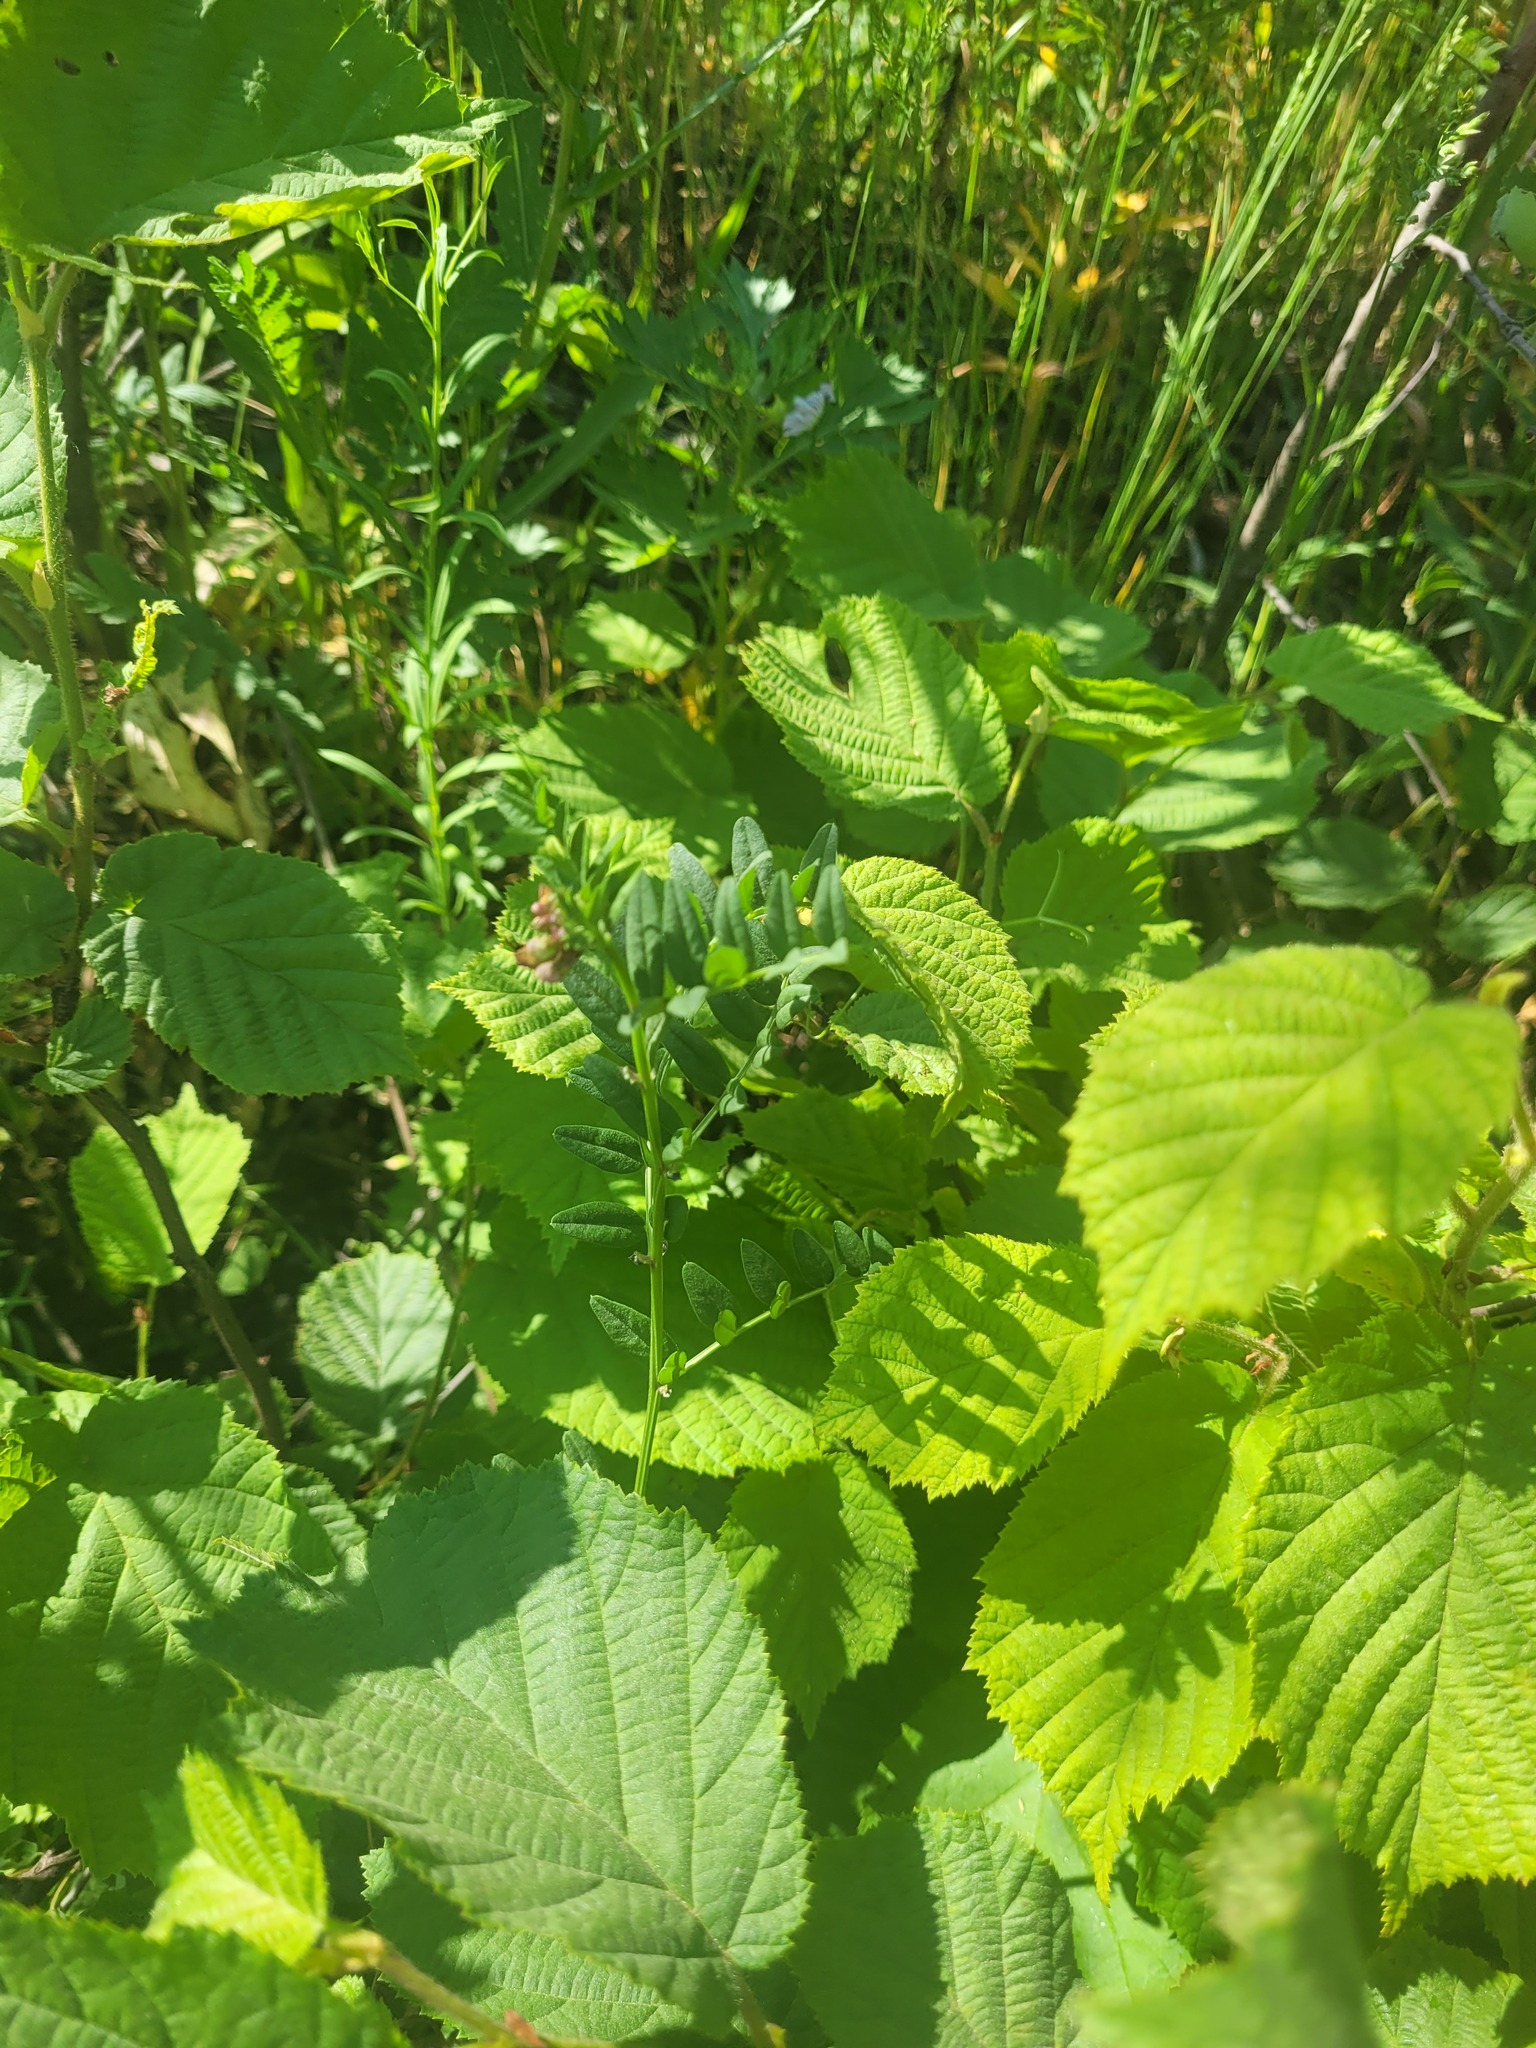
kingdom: Plantae
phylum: Tracheophyta
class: Magnoliopsida
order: Fabales
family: Fabaceae
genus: Vicia
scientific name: Vicia sepium
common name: Bush vetch
